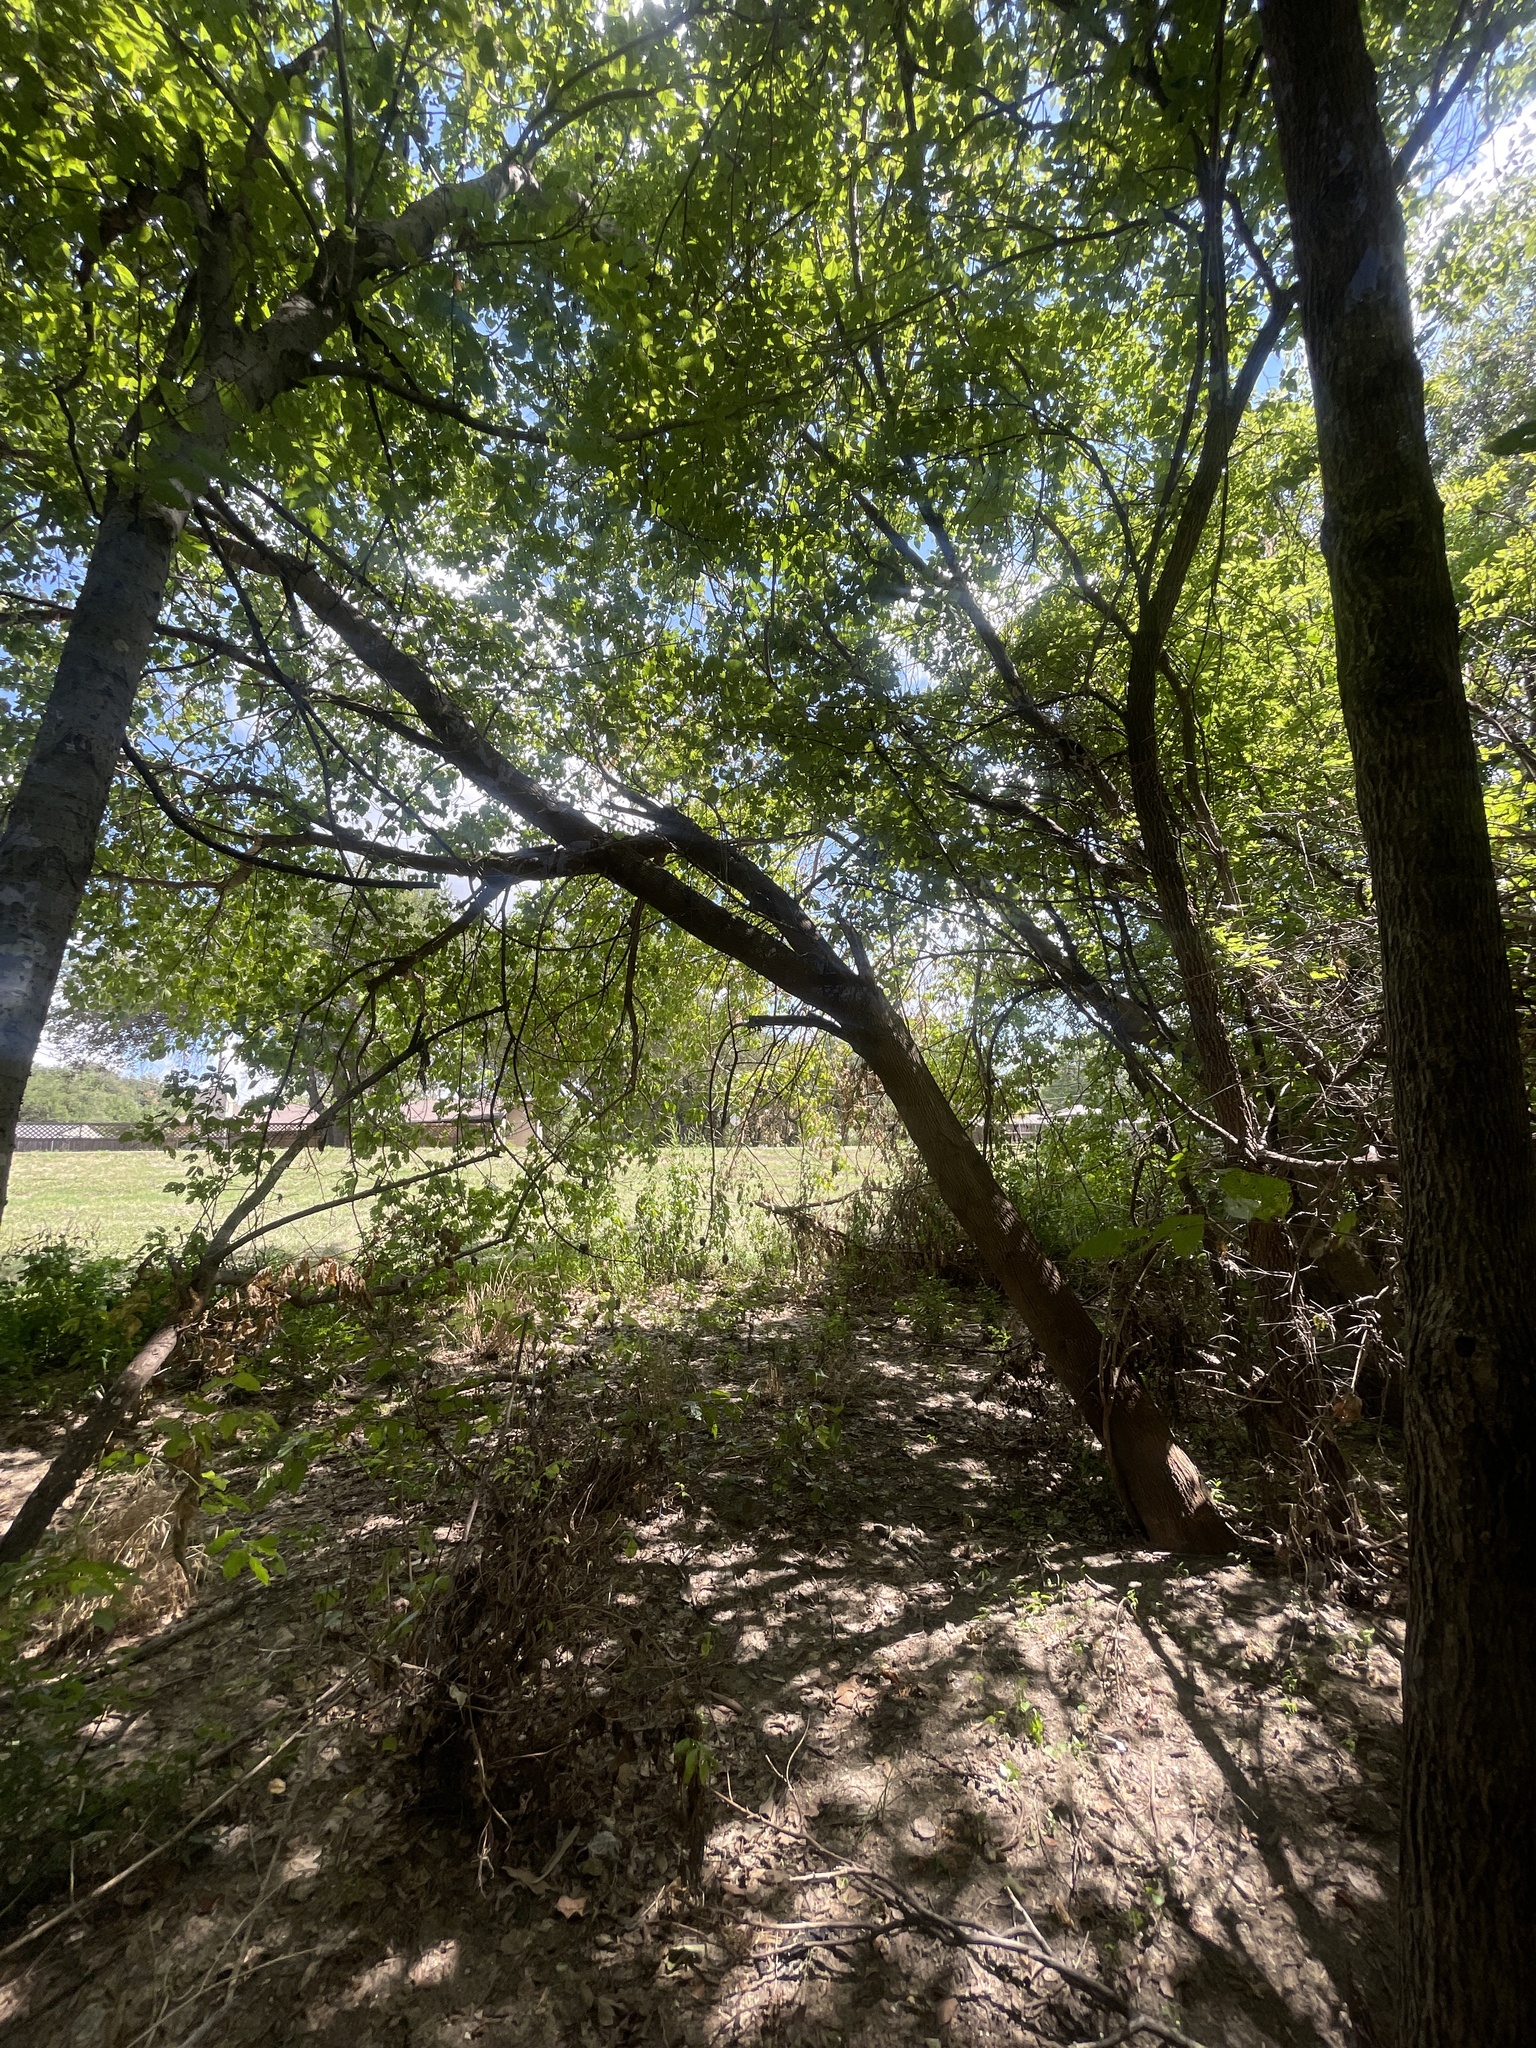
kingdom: Plantae
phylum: Tracheophyta
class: Magnoliopsida
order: Sapindales
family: Sapindaceae
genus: Acer
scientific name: Acer negundo
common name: Ashleaf maple
